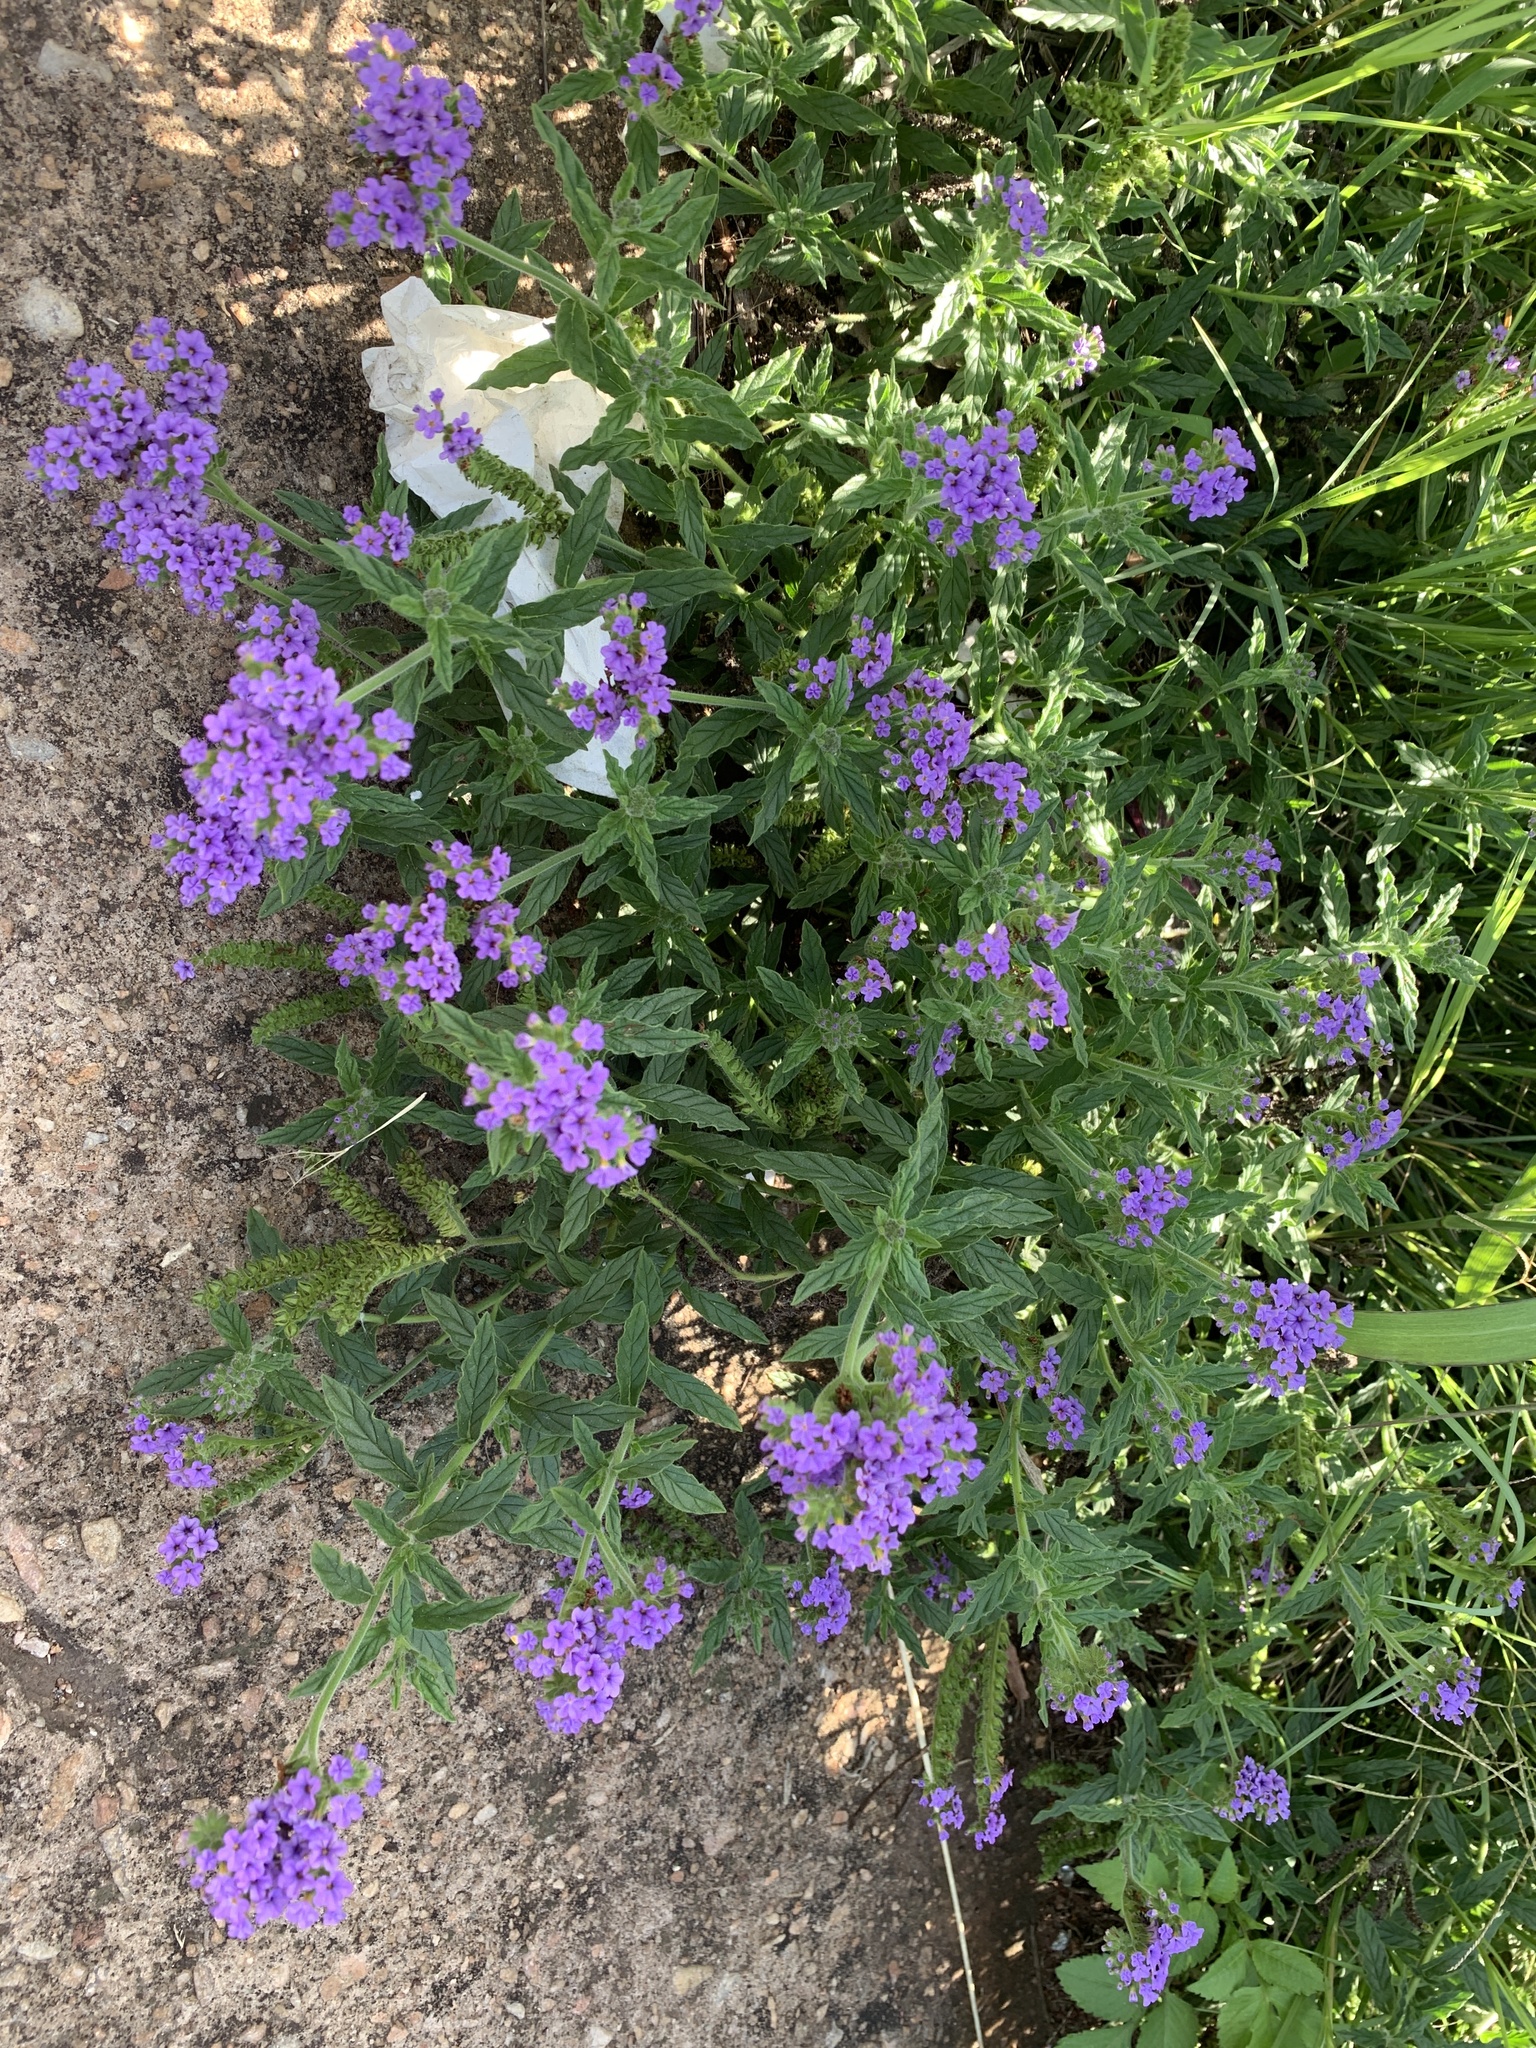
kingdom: Plantae
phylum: Tracheophyta
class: Magnoliopsida
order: Boraginales
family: Heliotropiaceae
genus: Heliotropium
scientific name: Heliotropium amplexicaule
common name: Clasping heliotrope
